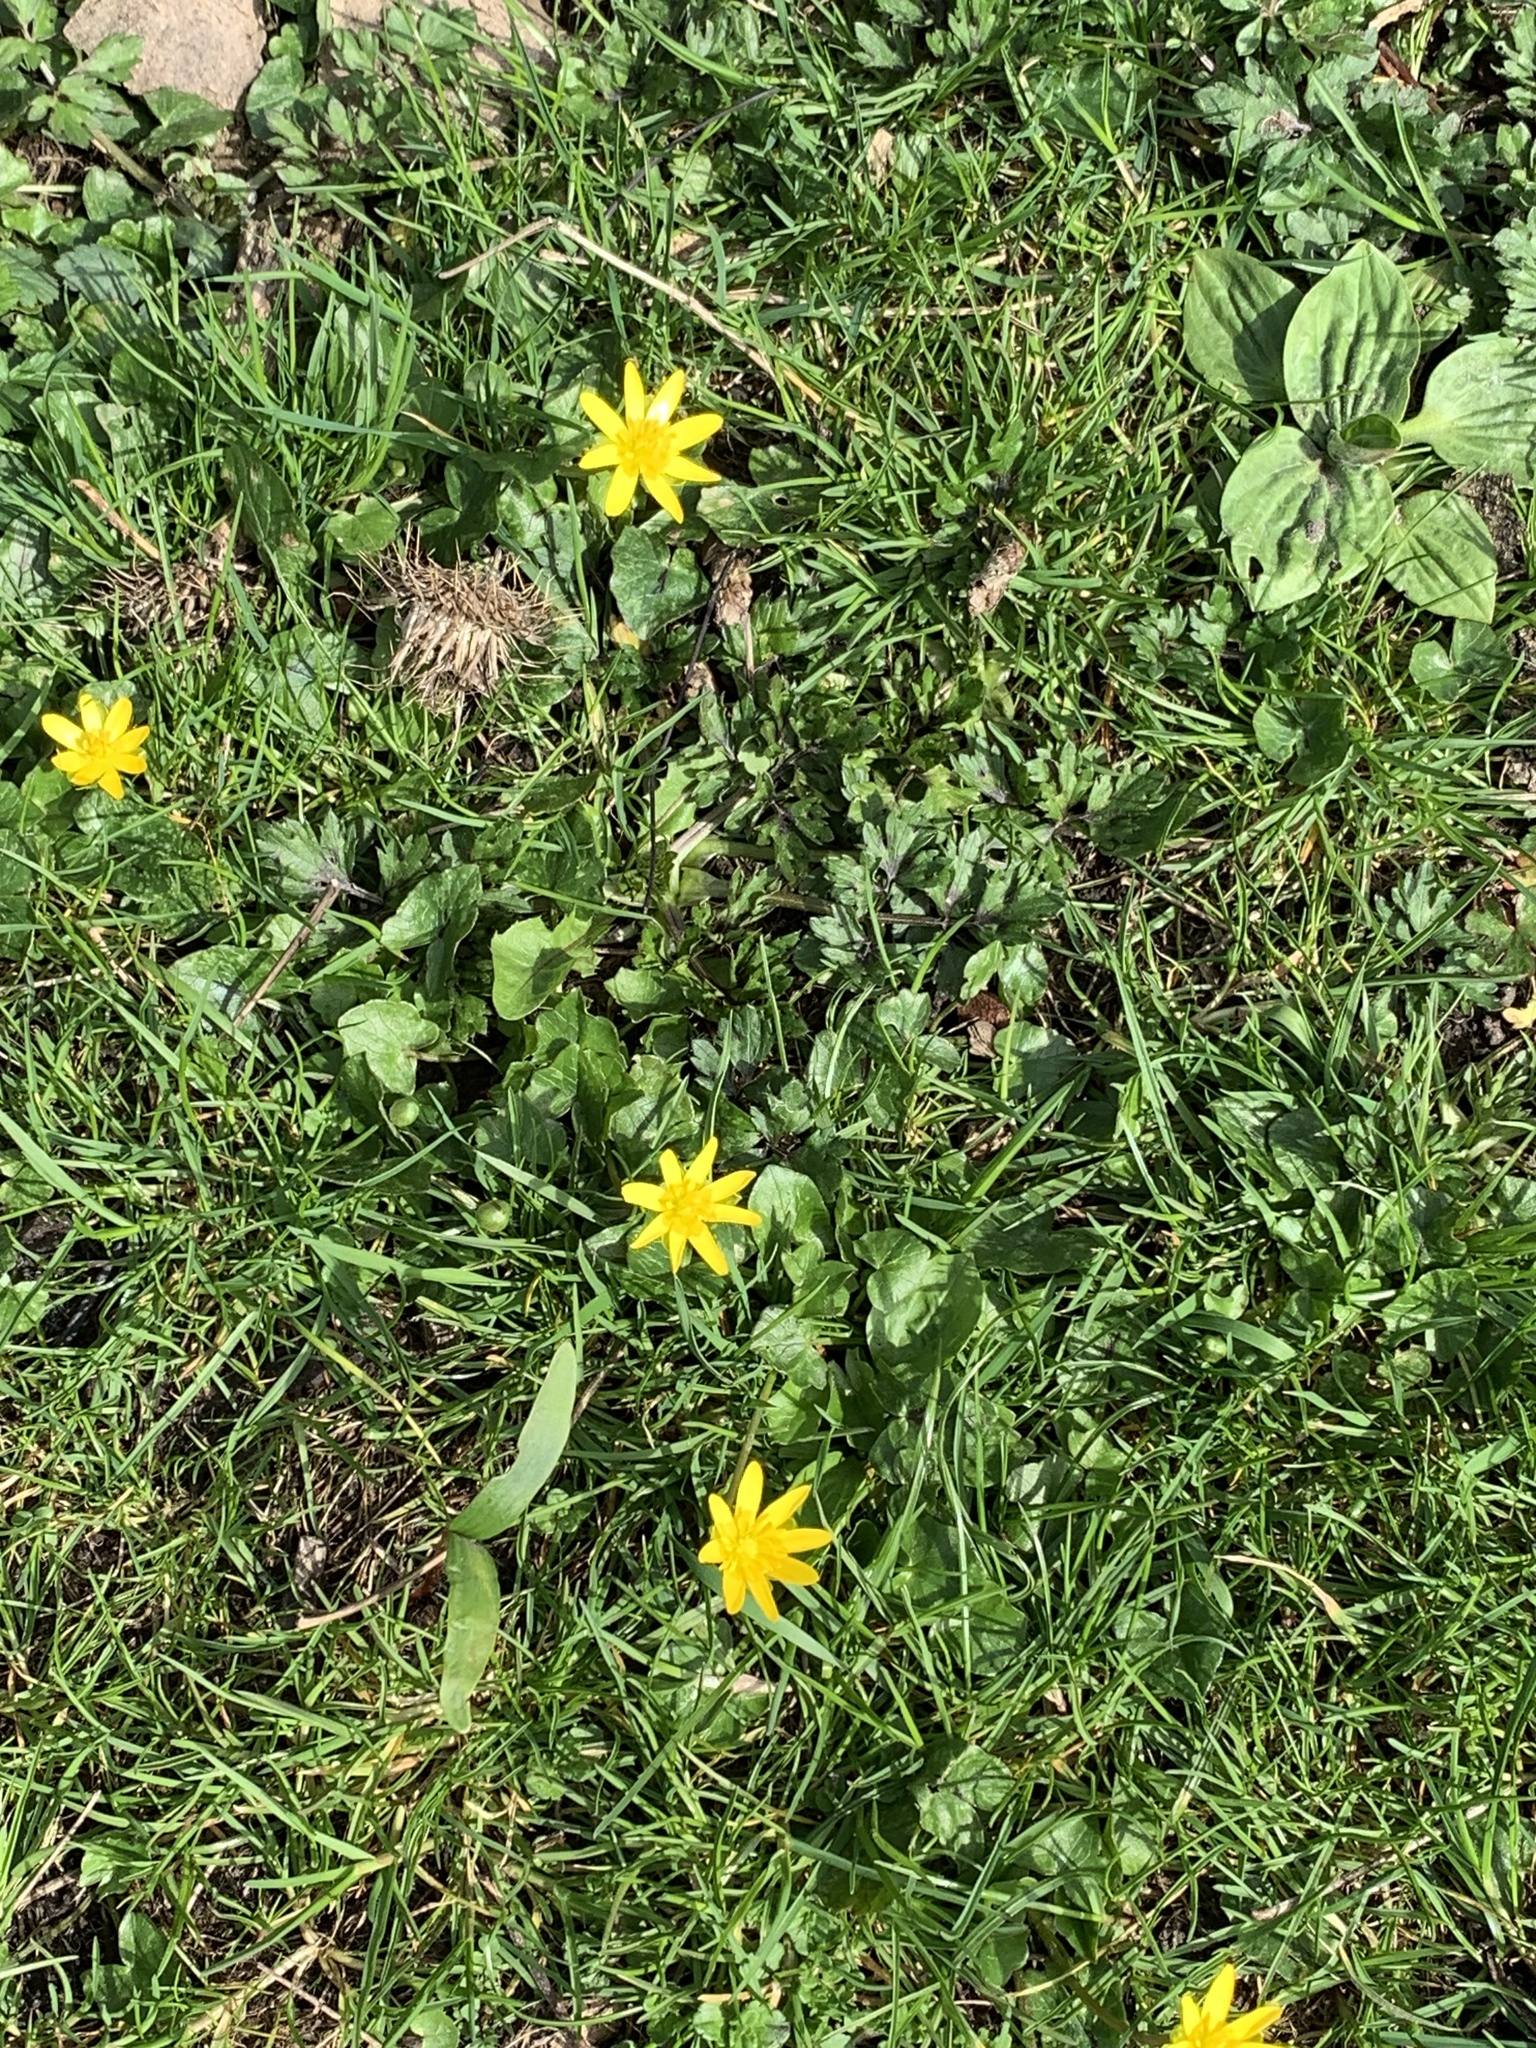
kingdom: Plantae
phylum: Tracheophyta
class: Magnoliopsida
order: Ranunculales
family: Ranunculaceae
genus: Ficaria
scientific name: Ficaria verna
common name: Lesser celandine
